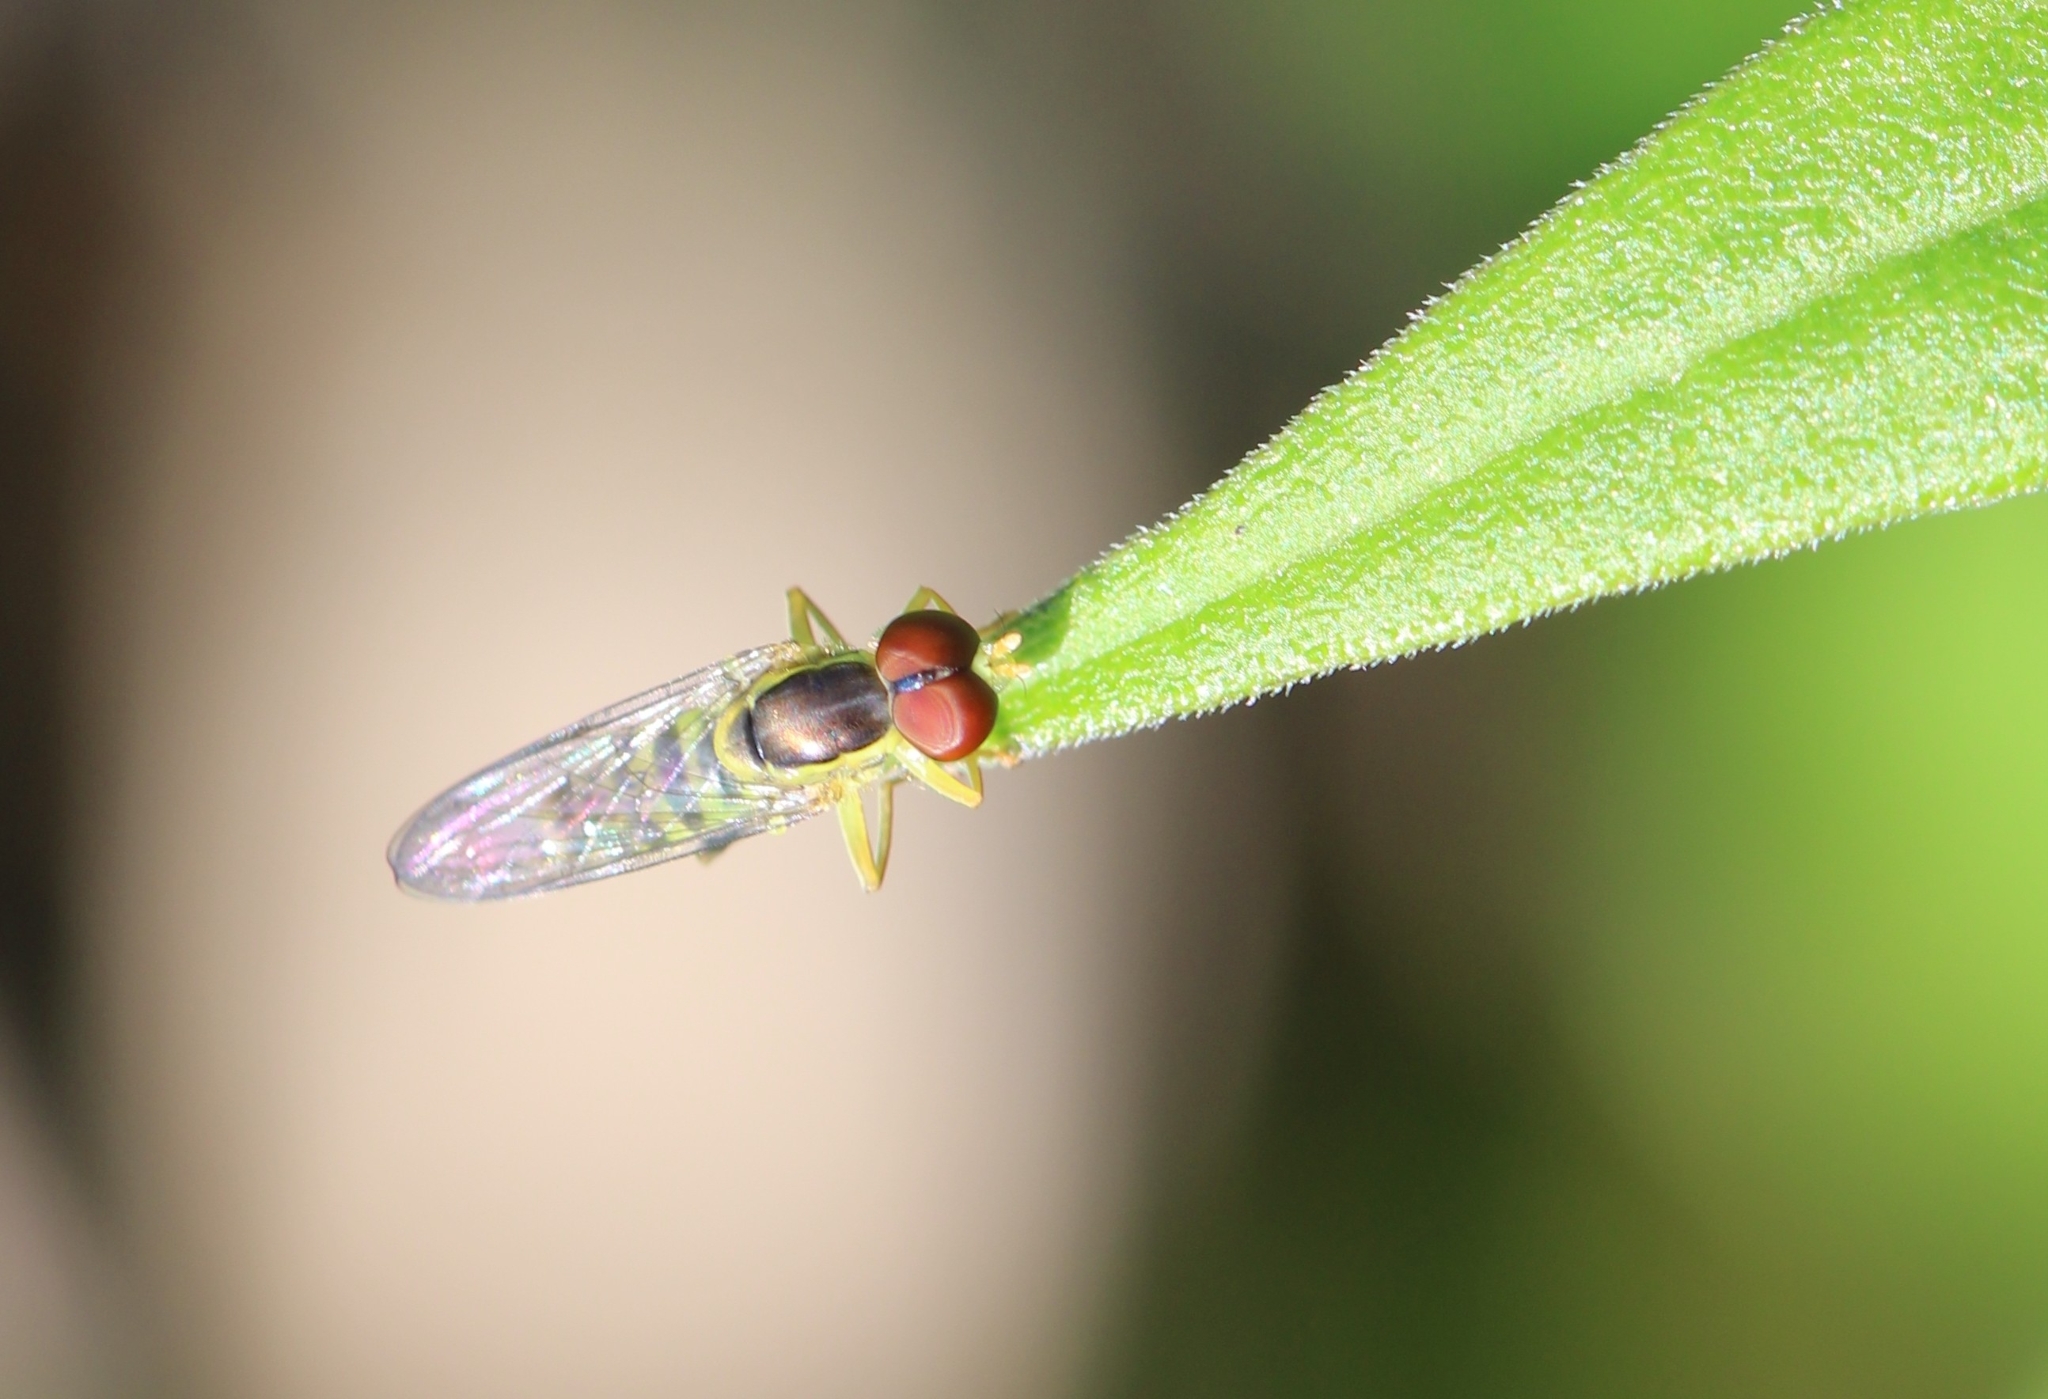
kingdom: Animalia
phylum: Arthropoda
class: Insecta
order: Diptera
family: Syrphidae
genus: Toxomerus
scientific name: Toxomerus geminatus
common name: Eastern calligrapher
